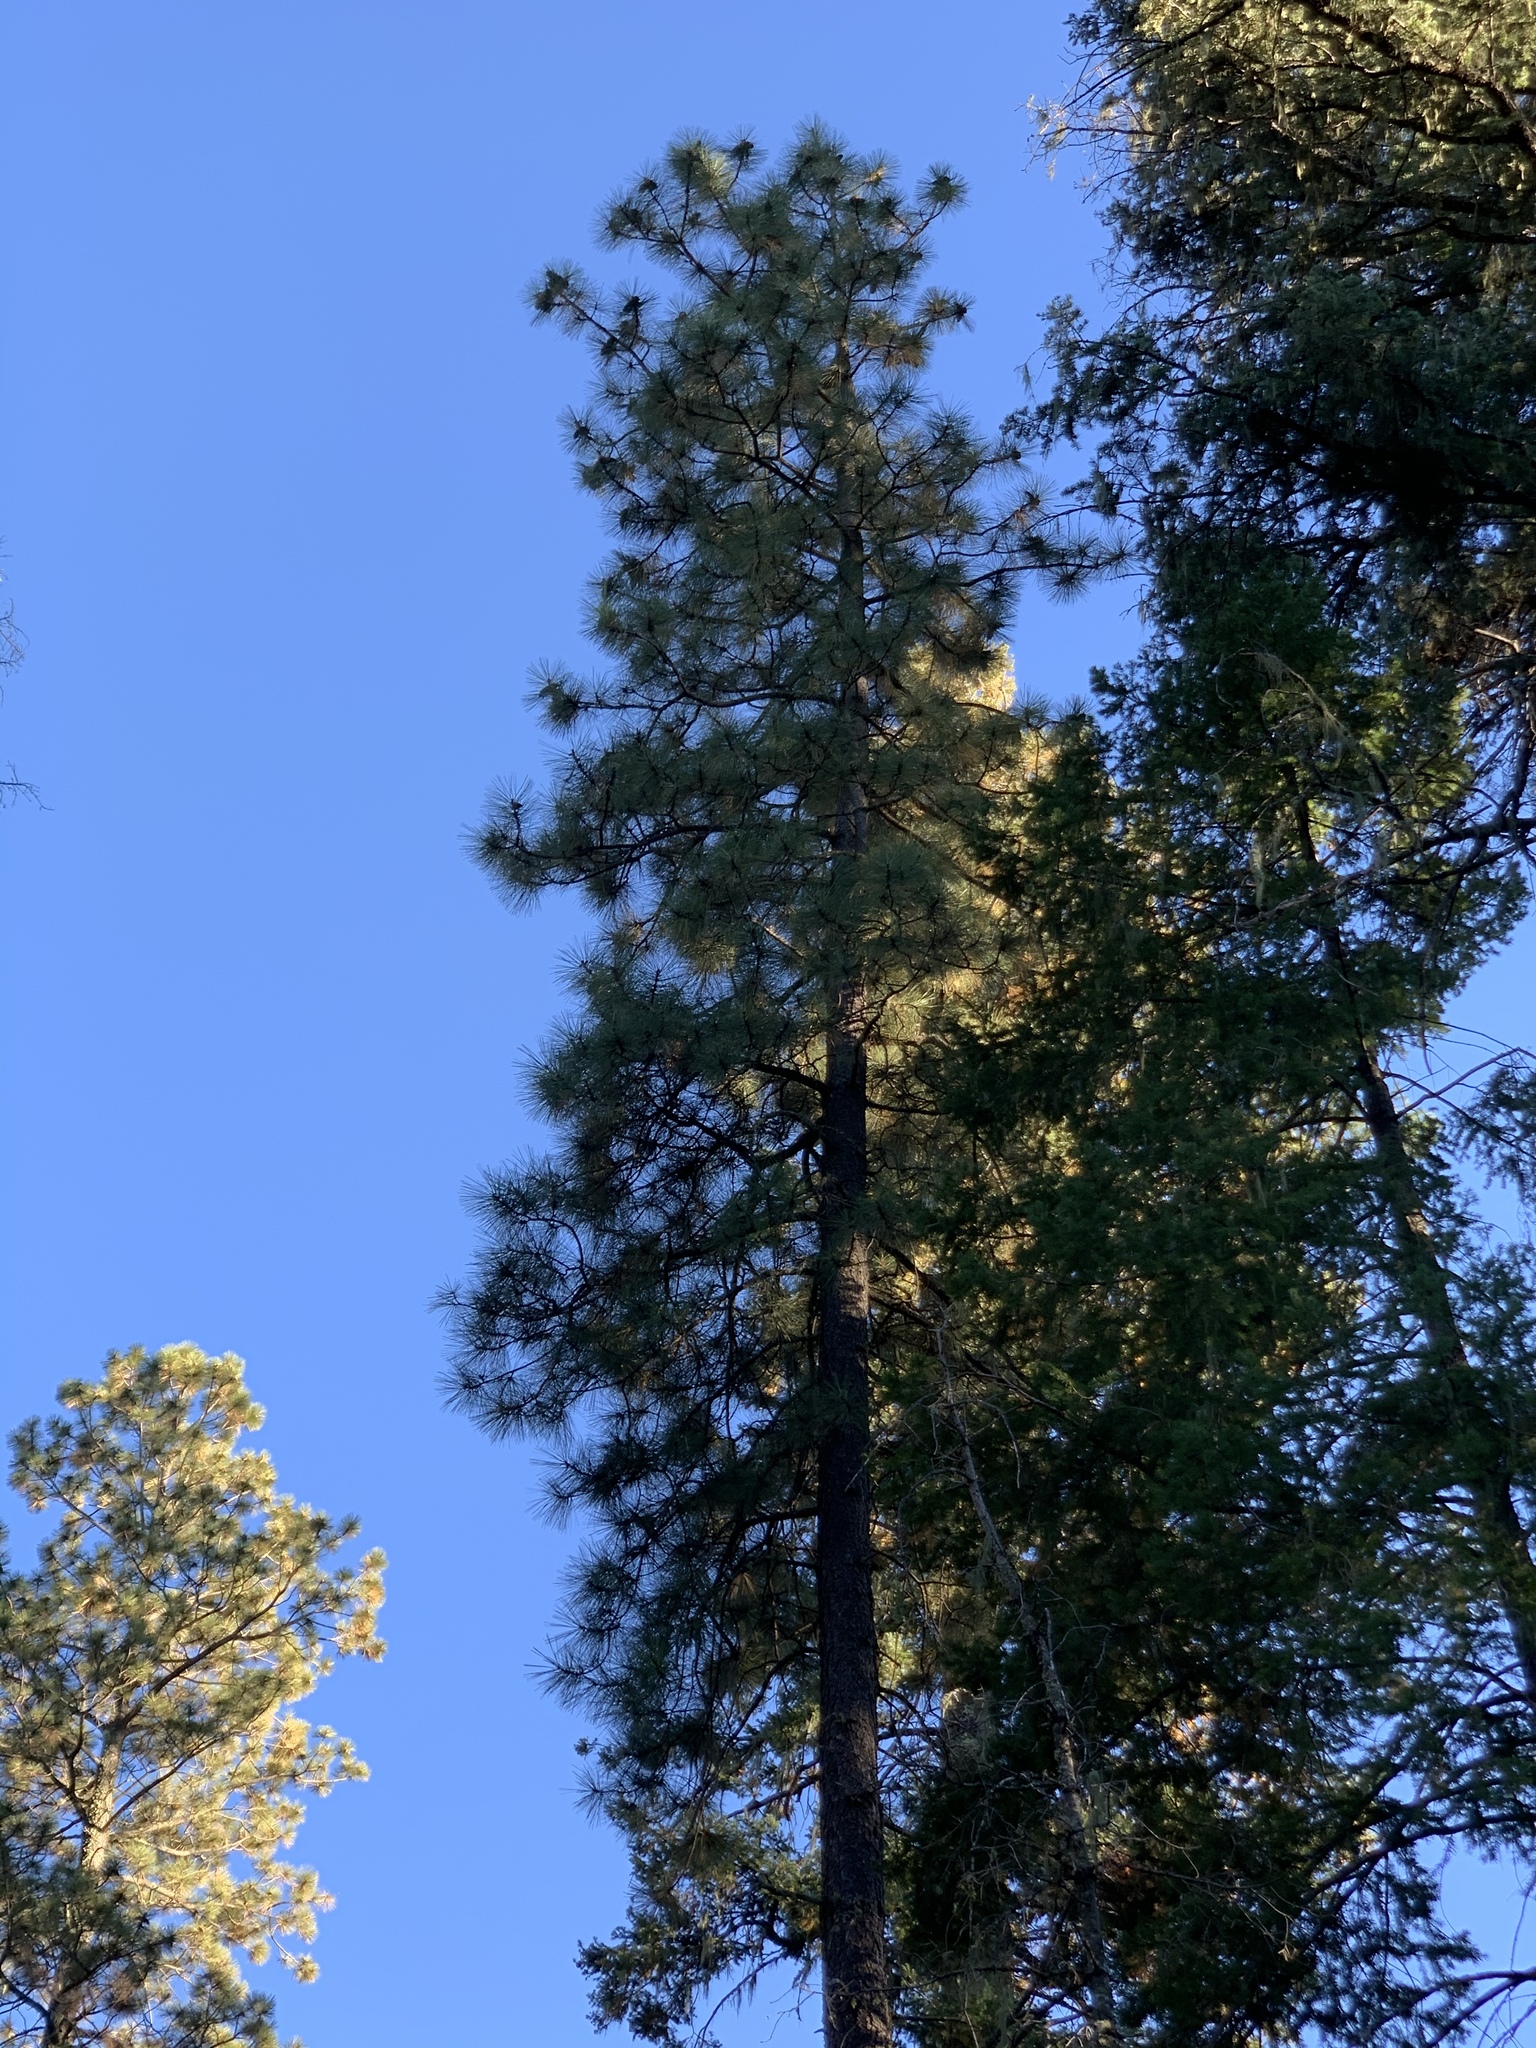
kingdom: Plantae
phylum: Tracheophyta
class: Pinopsida
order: Pinales
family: Pinaceae
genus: Pinus
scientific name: Pinus ponderosa
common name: Western yellow-pine
